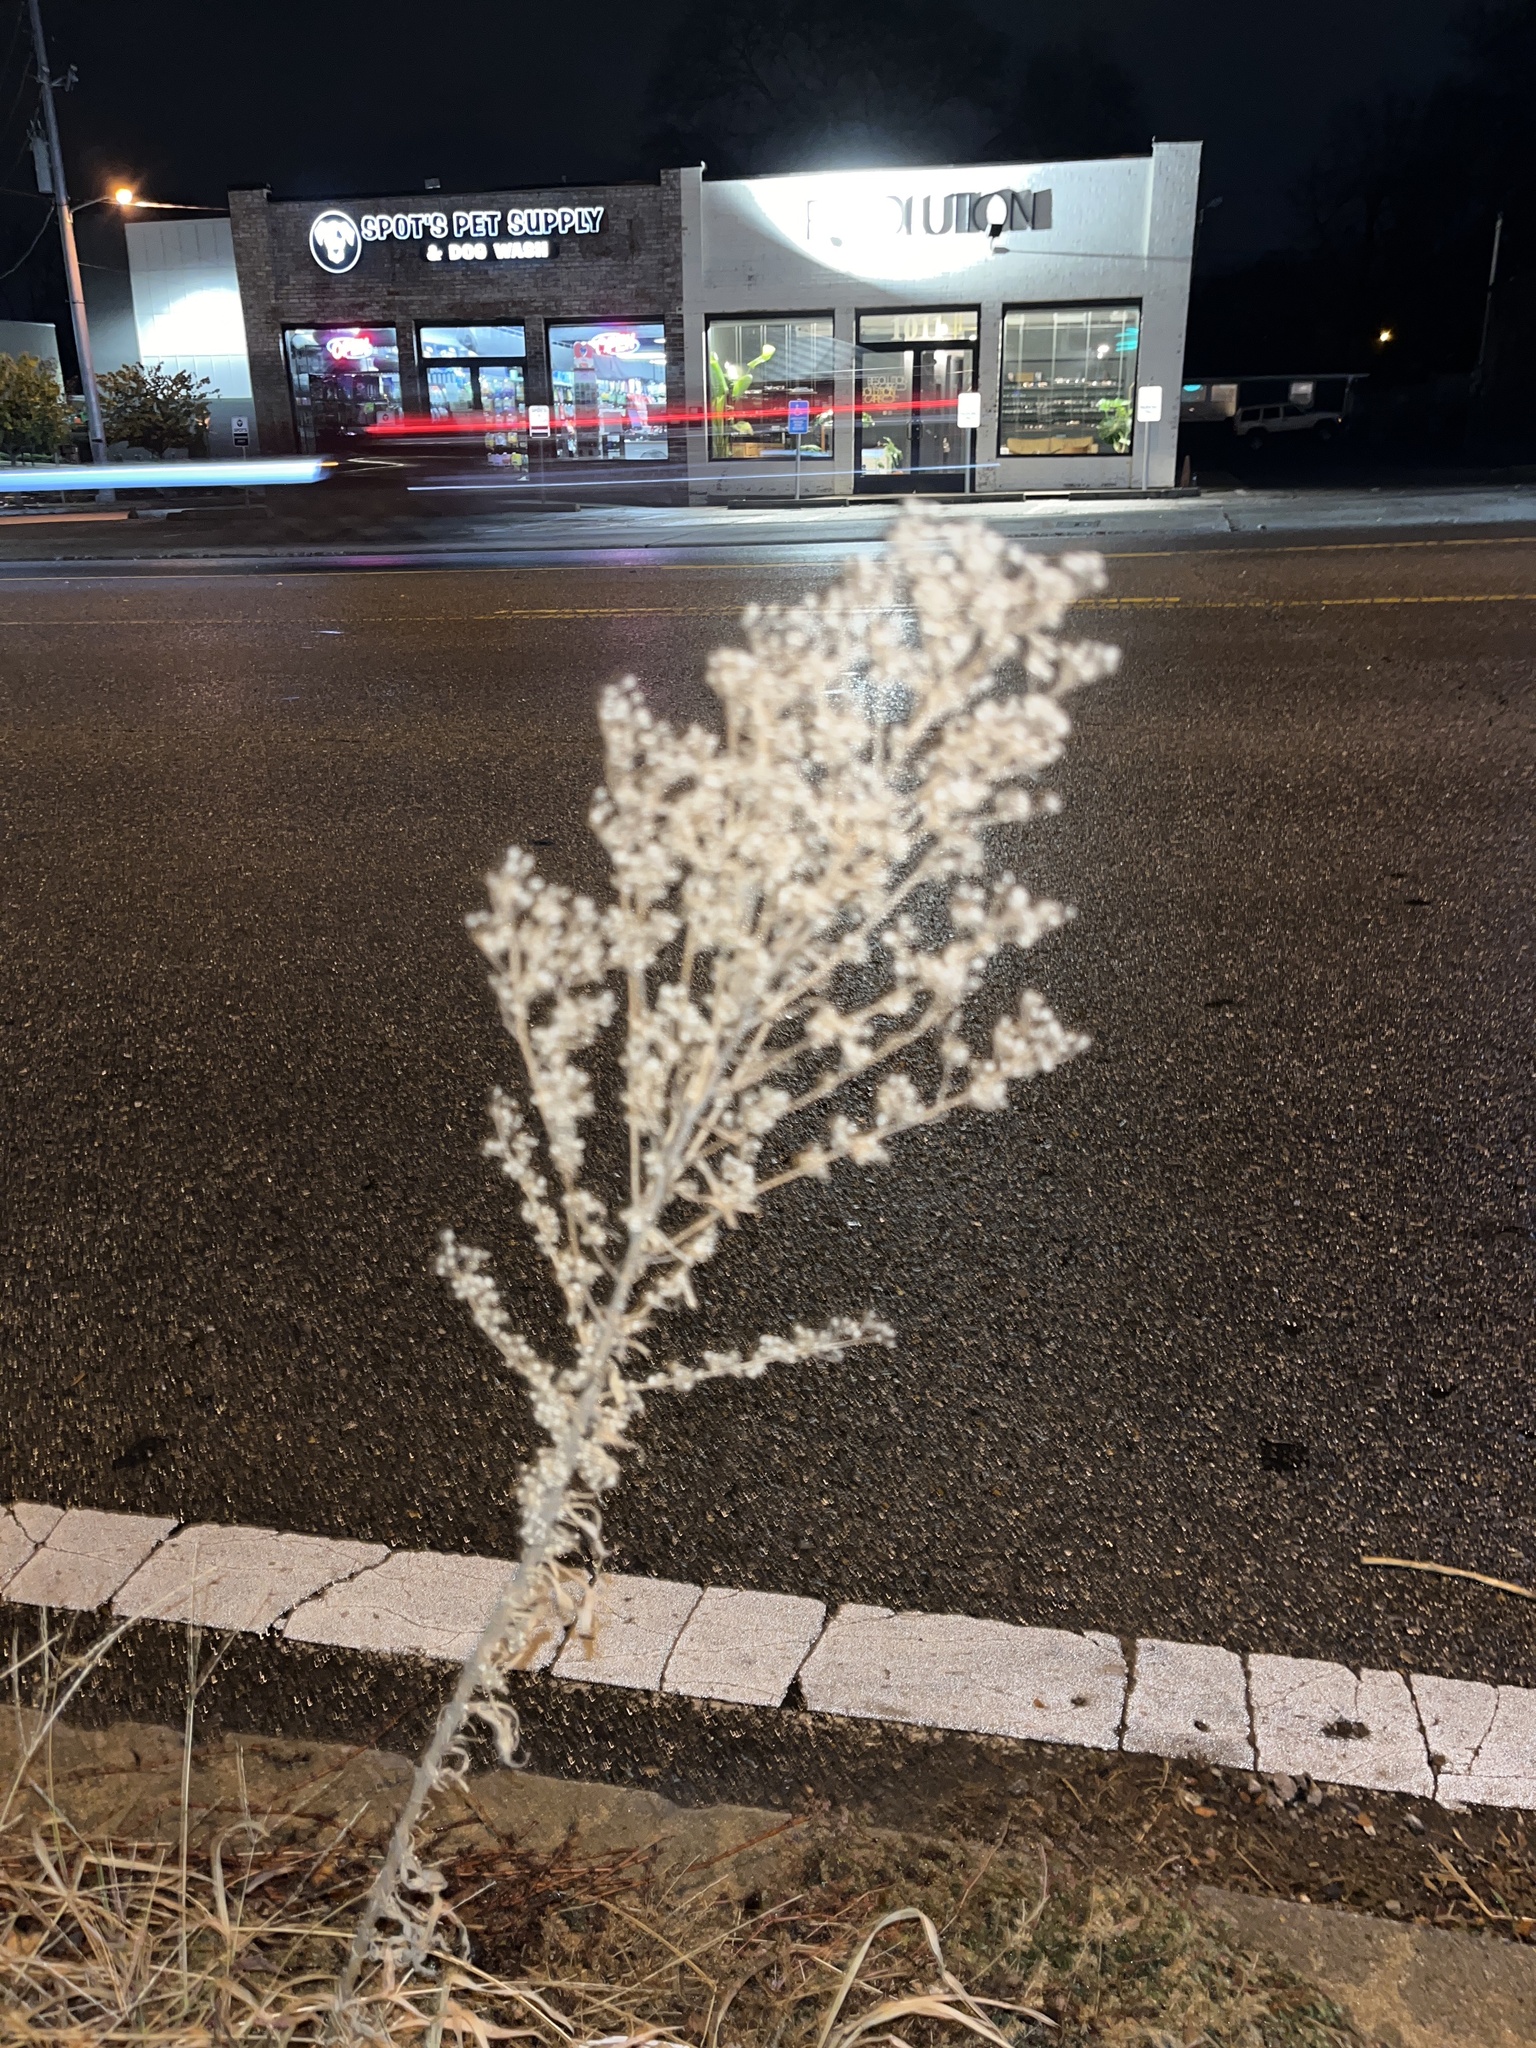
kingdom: Plantae
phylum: Tracheophyta
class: Magnoliopsida
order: Asterales
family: Asteraceae
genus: Erigeron
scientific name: Erigeron canadensis
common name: Canadian fleabane
